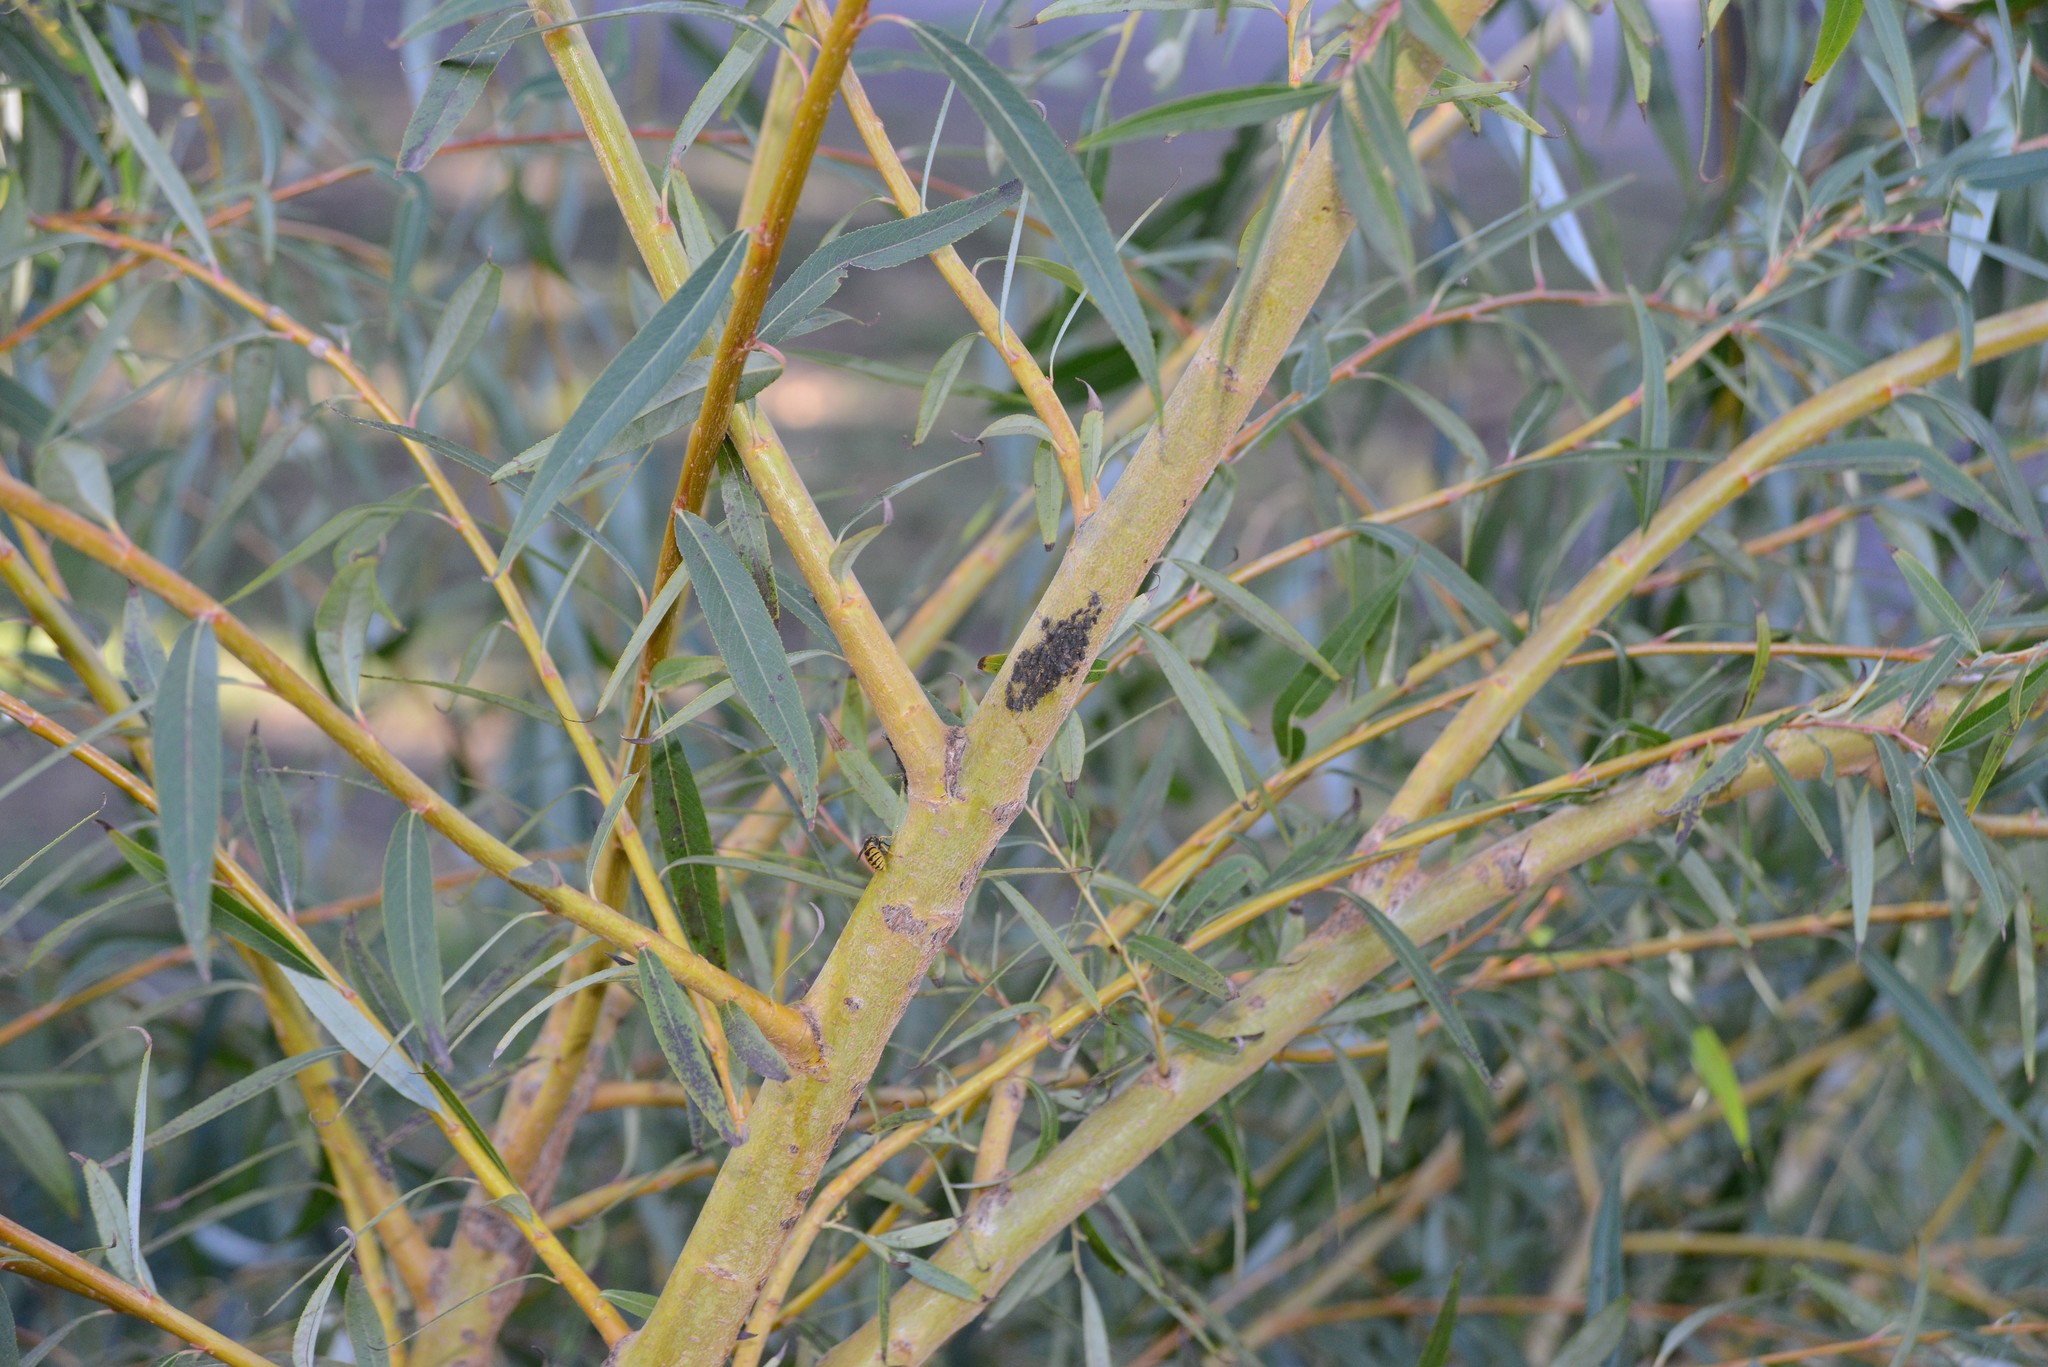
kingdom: Animalia
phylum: Arthropoda
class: Insecta
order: Hemiptera
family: Aphididae
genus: Tuberolachnus
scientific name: Tuberolachnus salignus
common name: Giant willow aphid
